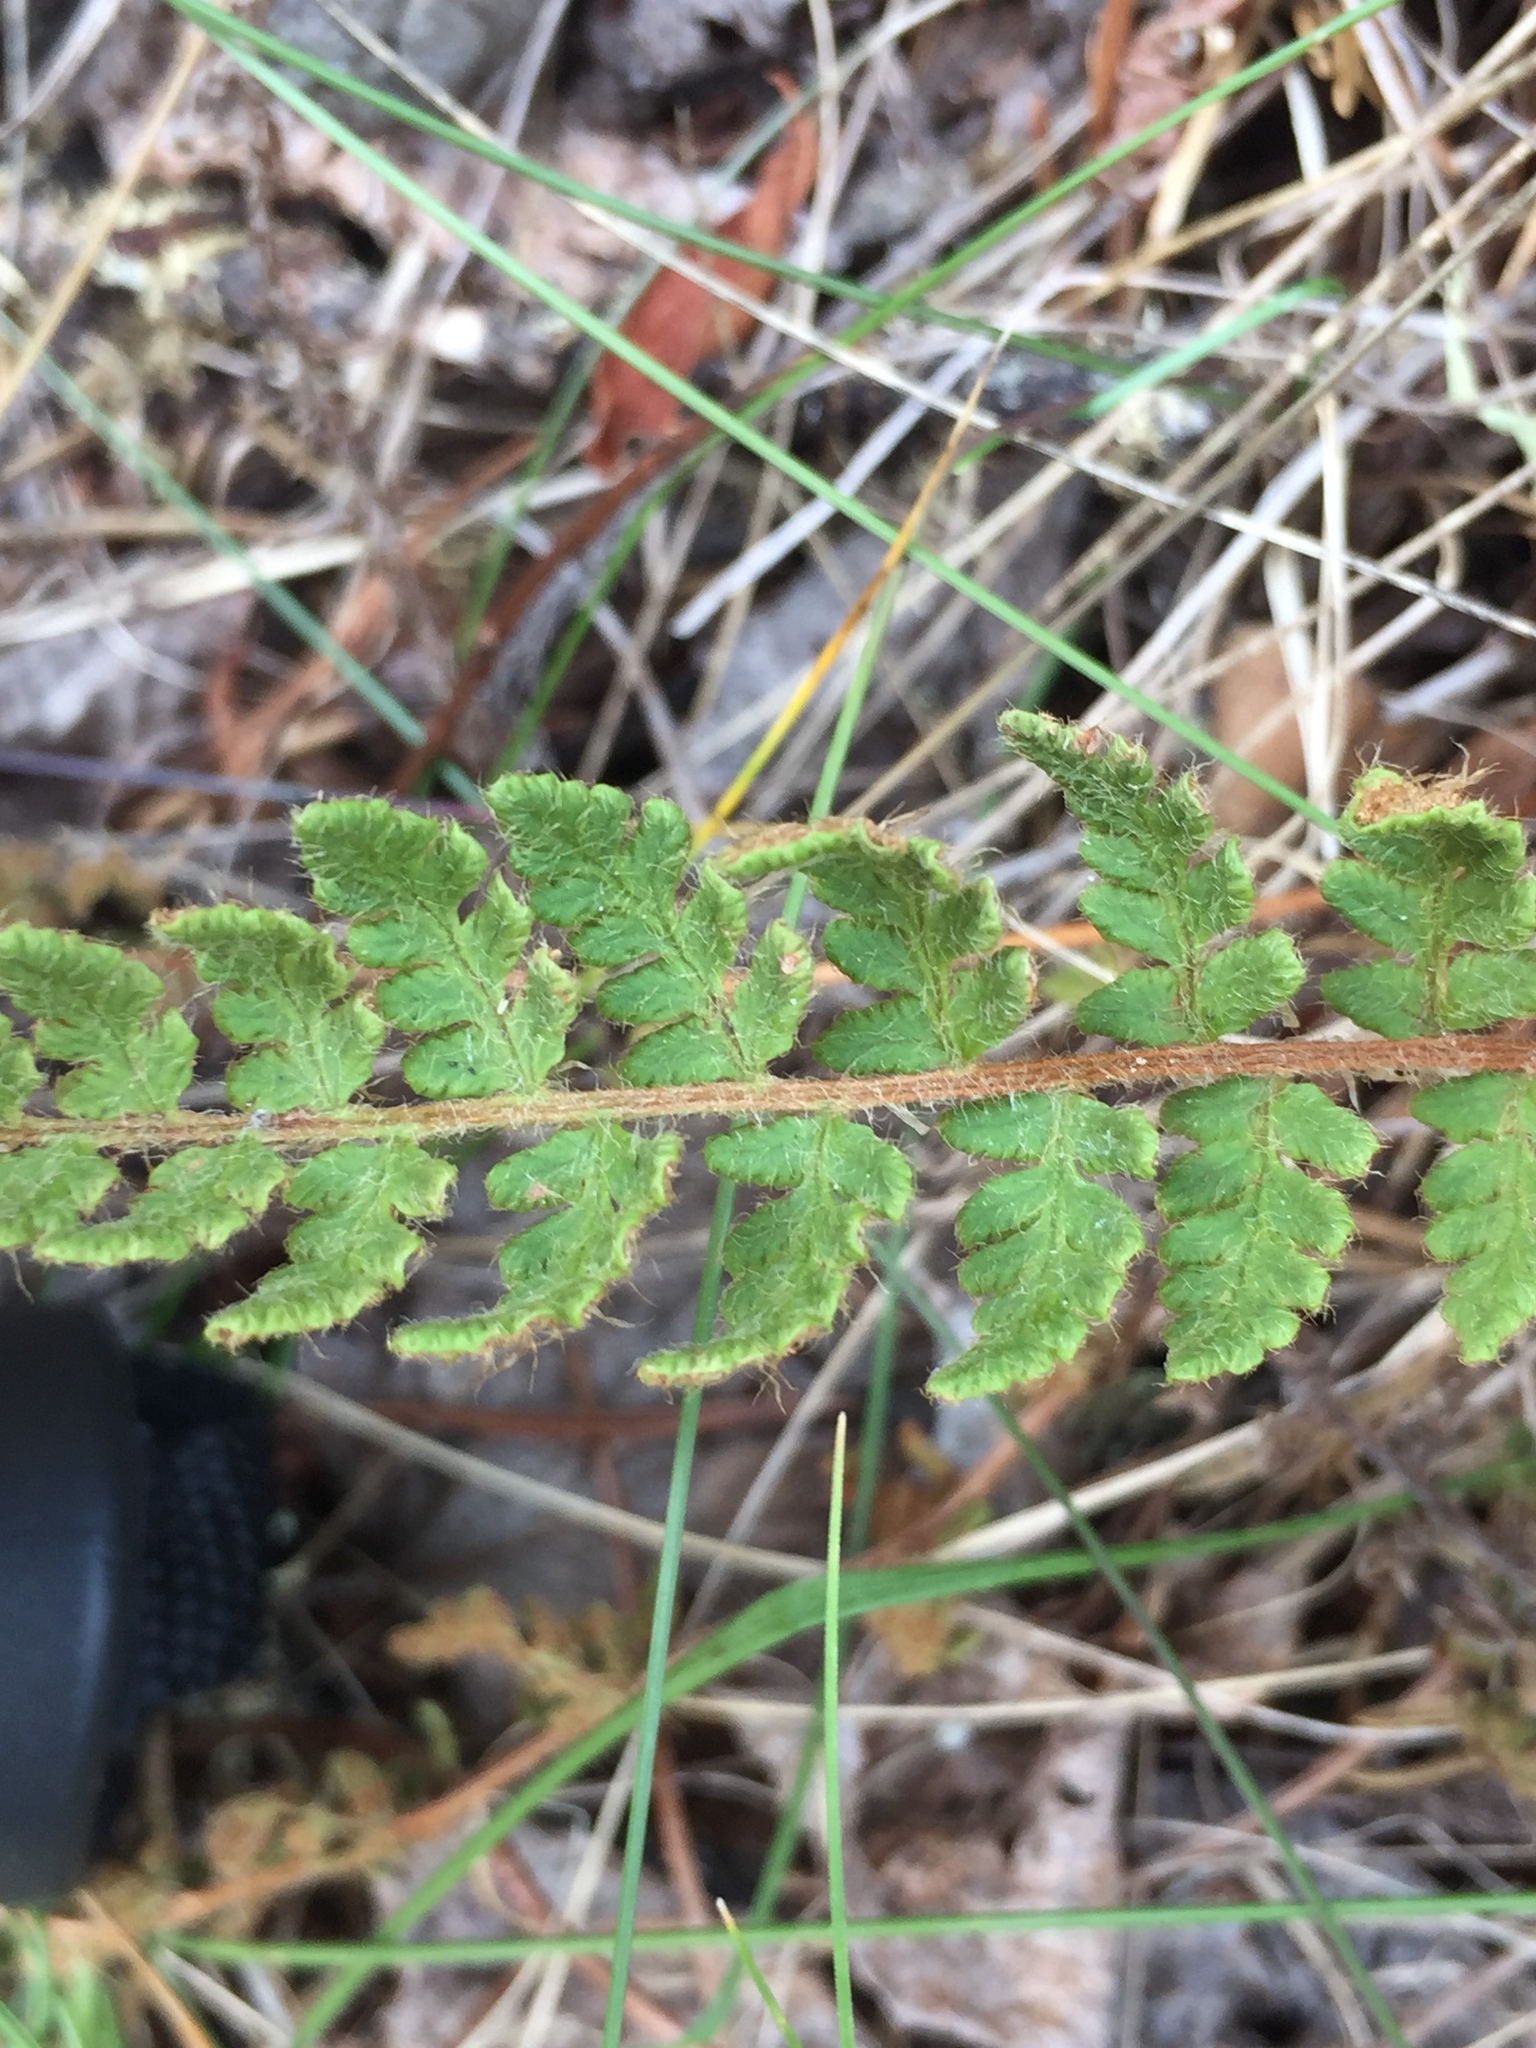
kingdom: Plantae
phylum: Tracheophyta
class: Polypodiopsida
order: Polypodiales
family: Woodsiaceae
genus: Woodsia
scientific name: Woodsia ilvensis
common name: Fragrant woodsia
